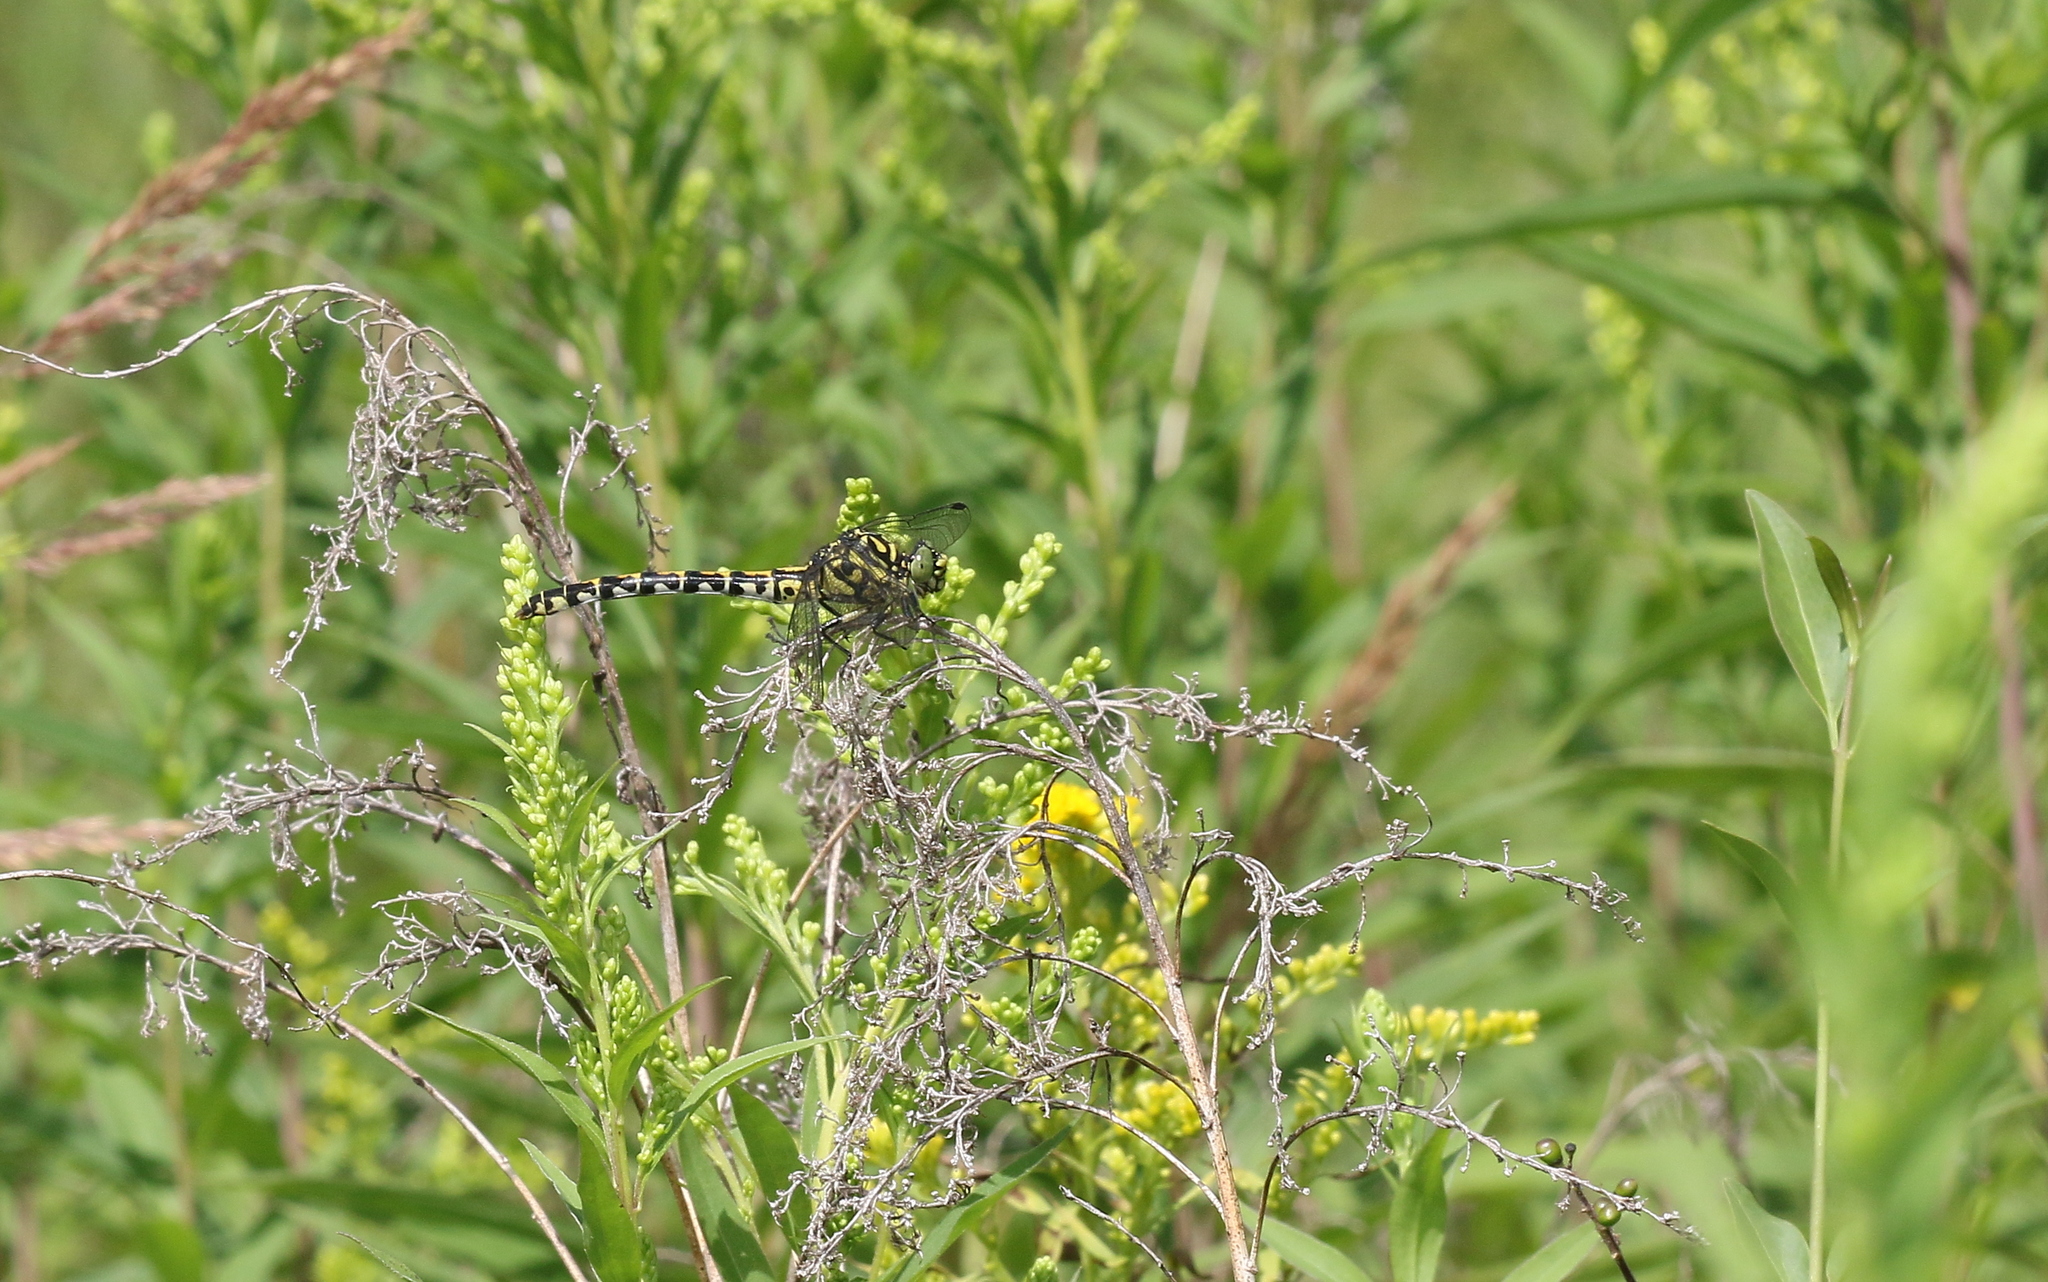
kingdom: Animalia
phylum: Arthropoda
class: Insecta
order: Odonata
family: Gomphidae
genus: Onychogomphus
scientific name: Onychogomphus forcipatus
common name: Small pincertail
